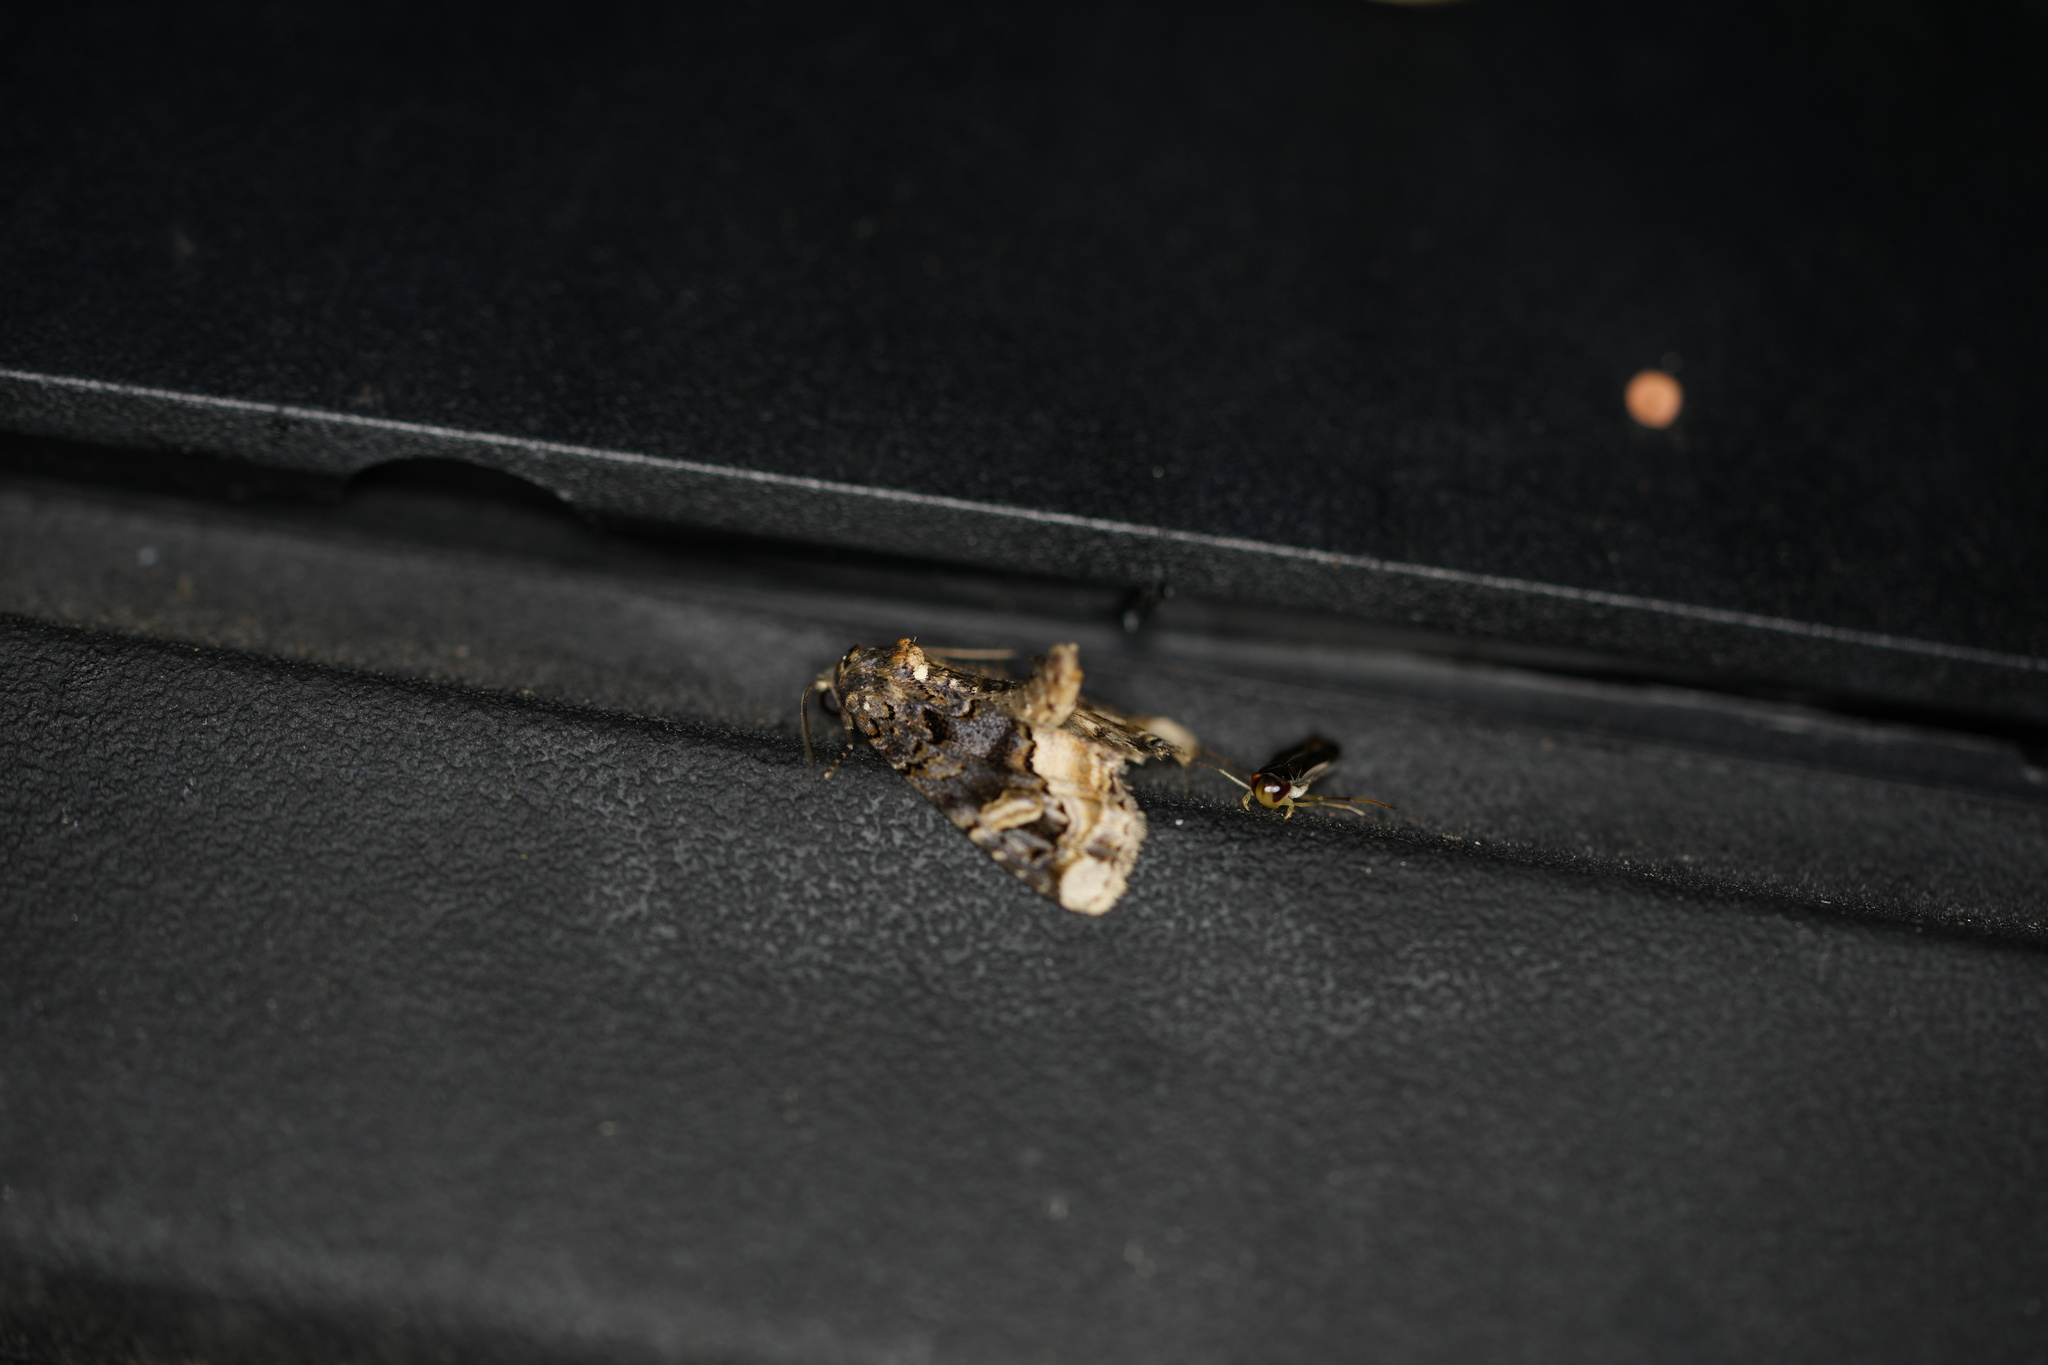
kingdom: Animalia
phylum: Arthropoda
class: Insecta
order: Lepidoptera
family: Noctuidae
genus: Spodoptera
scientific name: Spodoptera ornithogalli
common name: Yellow-striped armyworm
